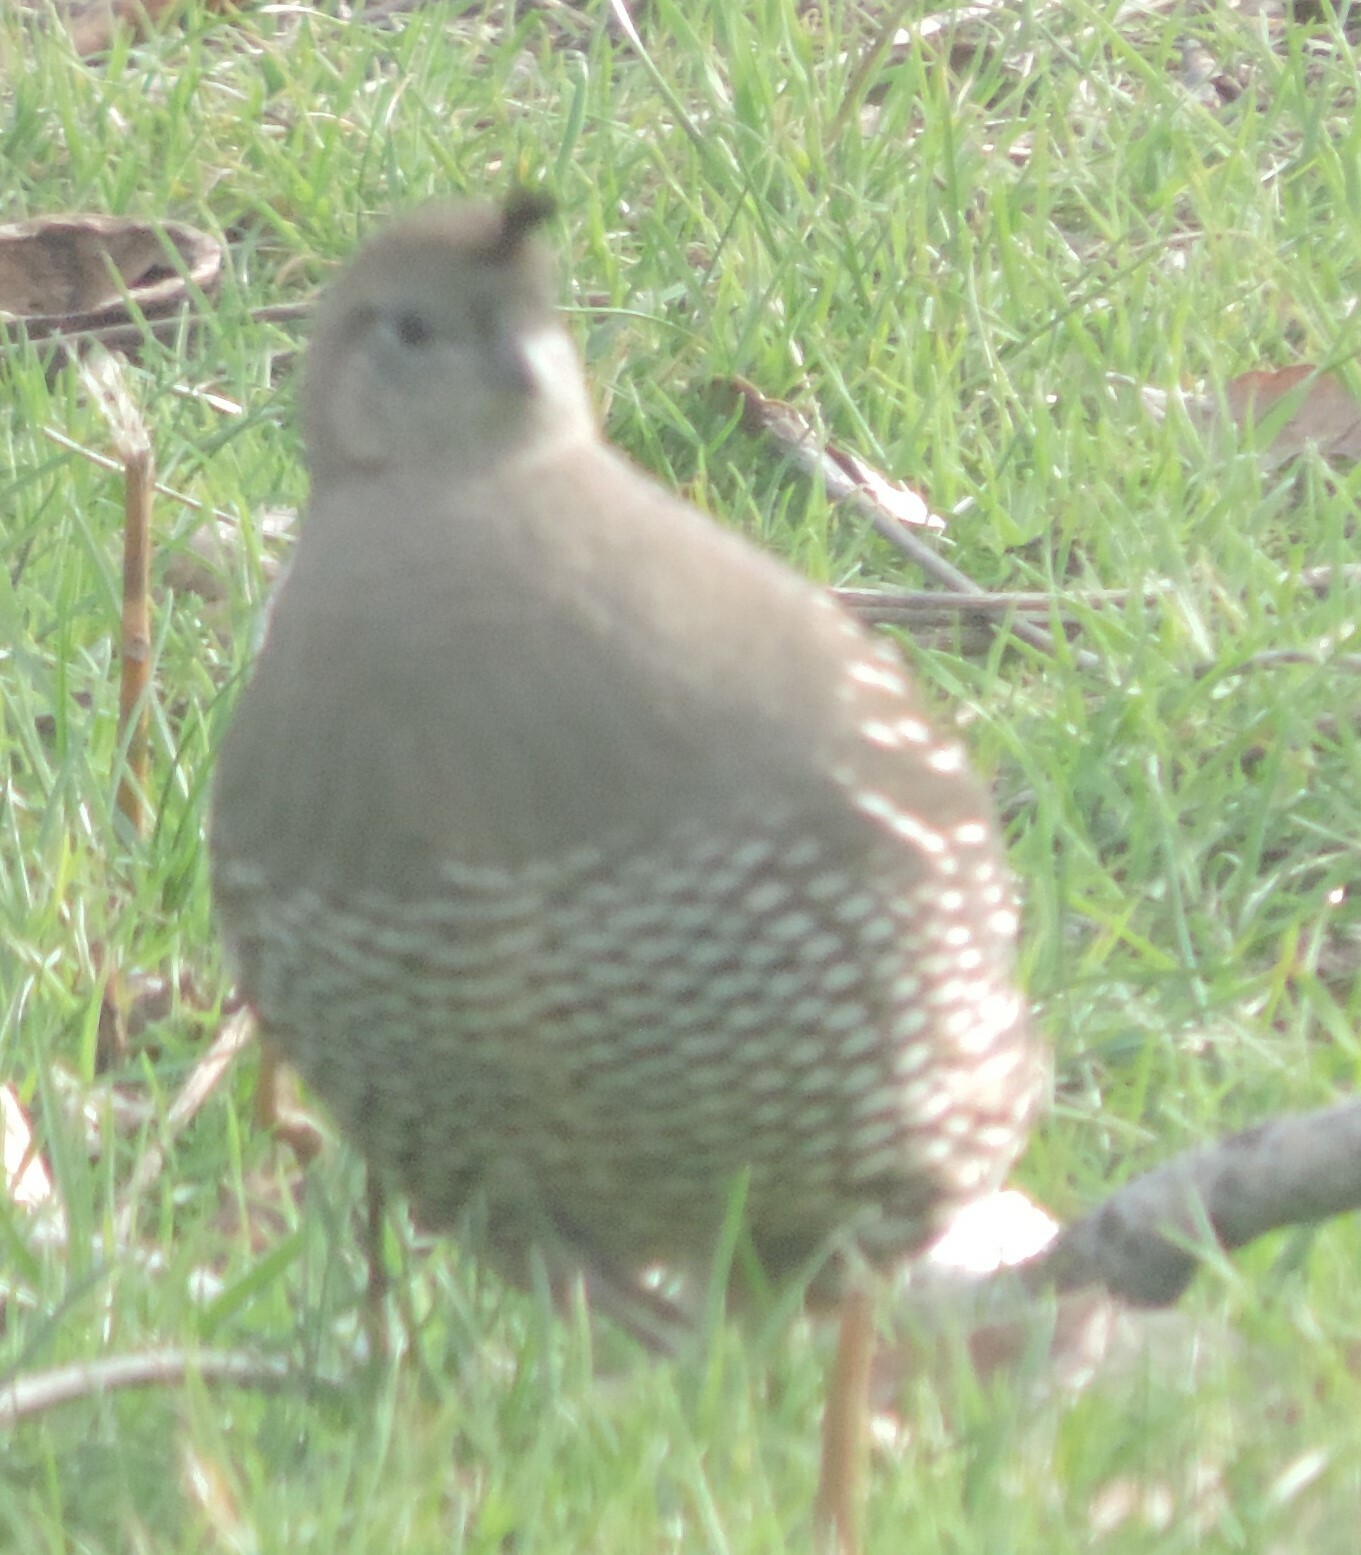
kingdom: Animalia
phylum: Chordata
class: Aves
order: Galliformes
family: Odontophoridae
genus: Callipepla
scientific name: Callipepla californica
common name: California quail
